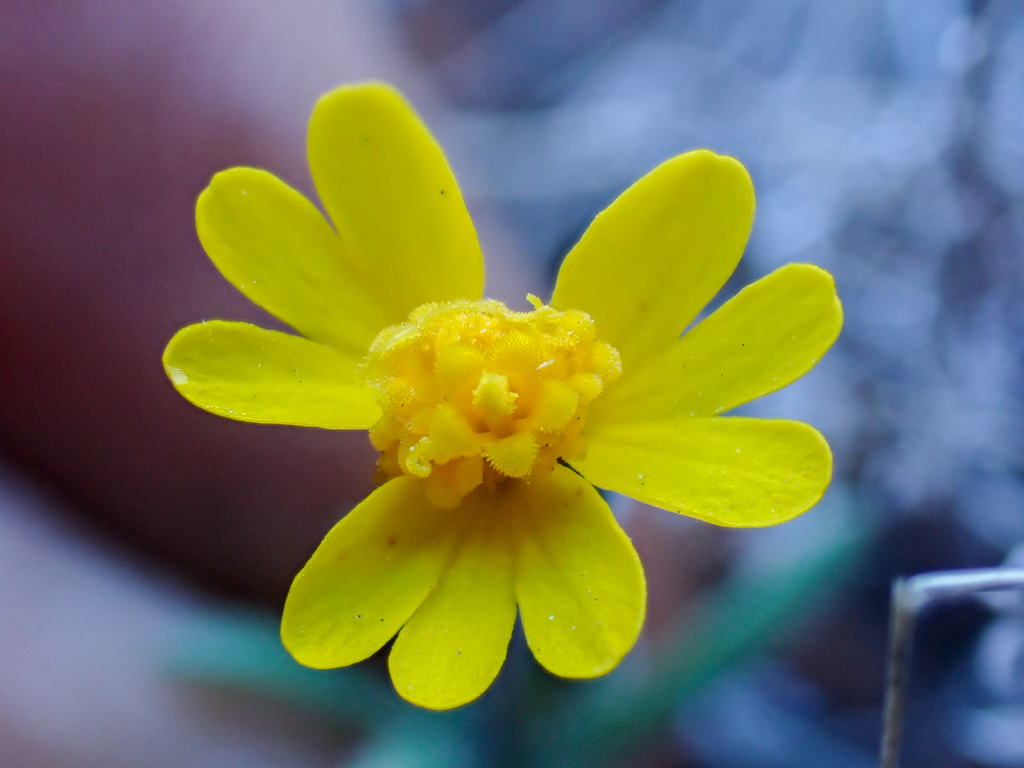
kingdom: Plantae
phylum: Tracheophyta
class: Magnoliopsida
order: Asterales
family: Asteraceae
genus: Harmonia
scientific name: Harmonia hallii
